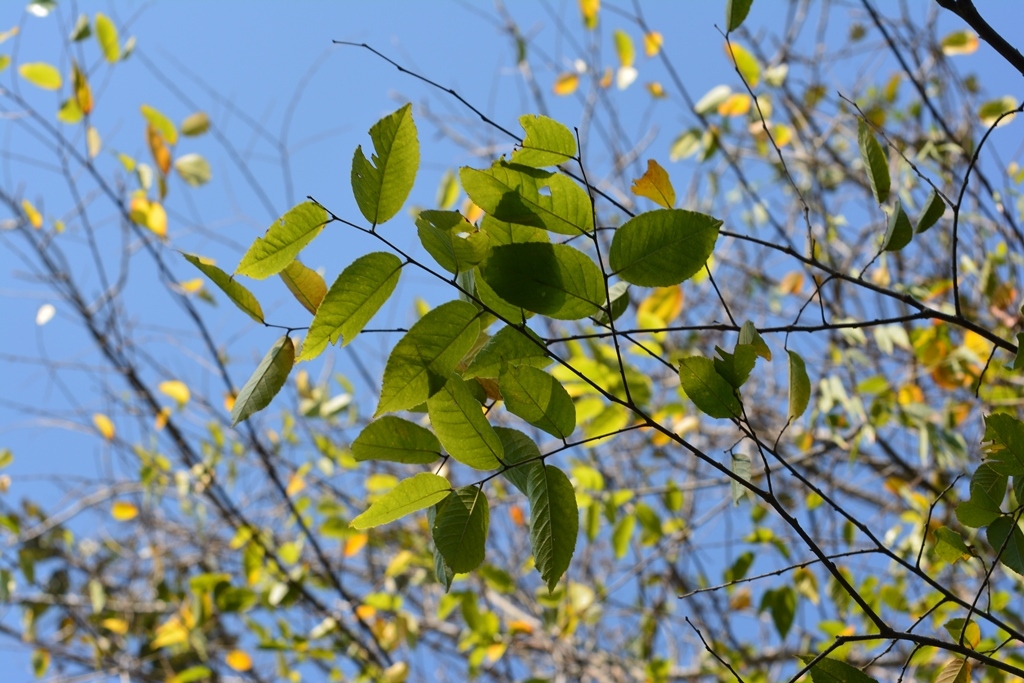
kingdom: Plantae
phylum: Tracheophyta
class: Magnoliopsida
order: Rosales
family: Ulmaceae
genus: Ulmus
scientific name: Ulmus ismaelis
